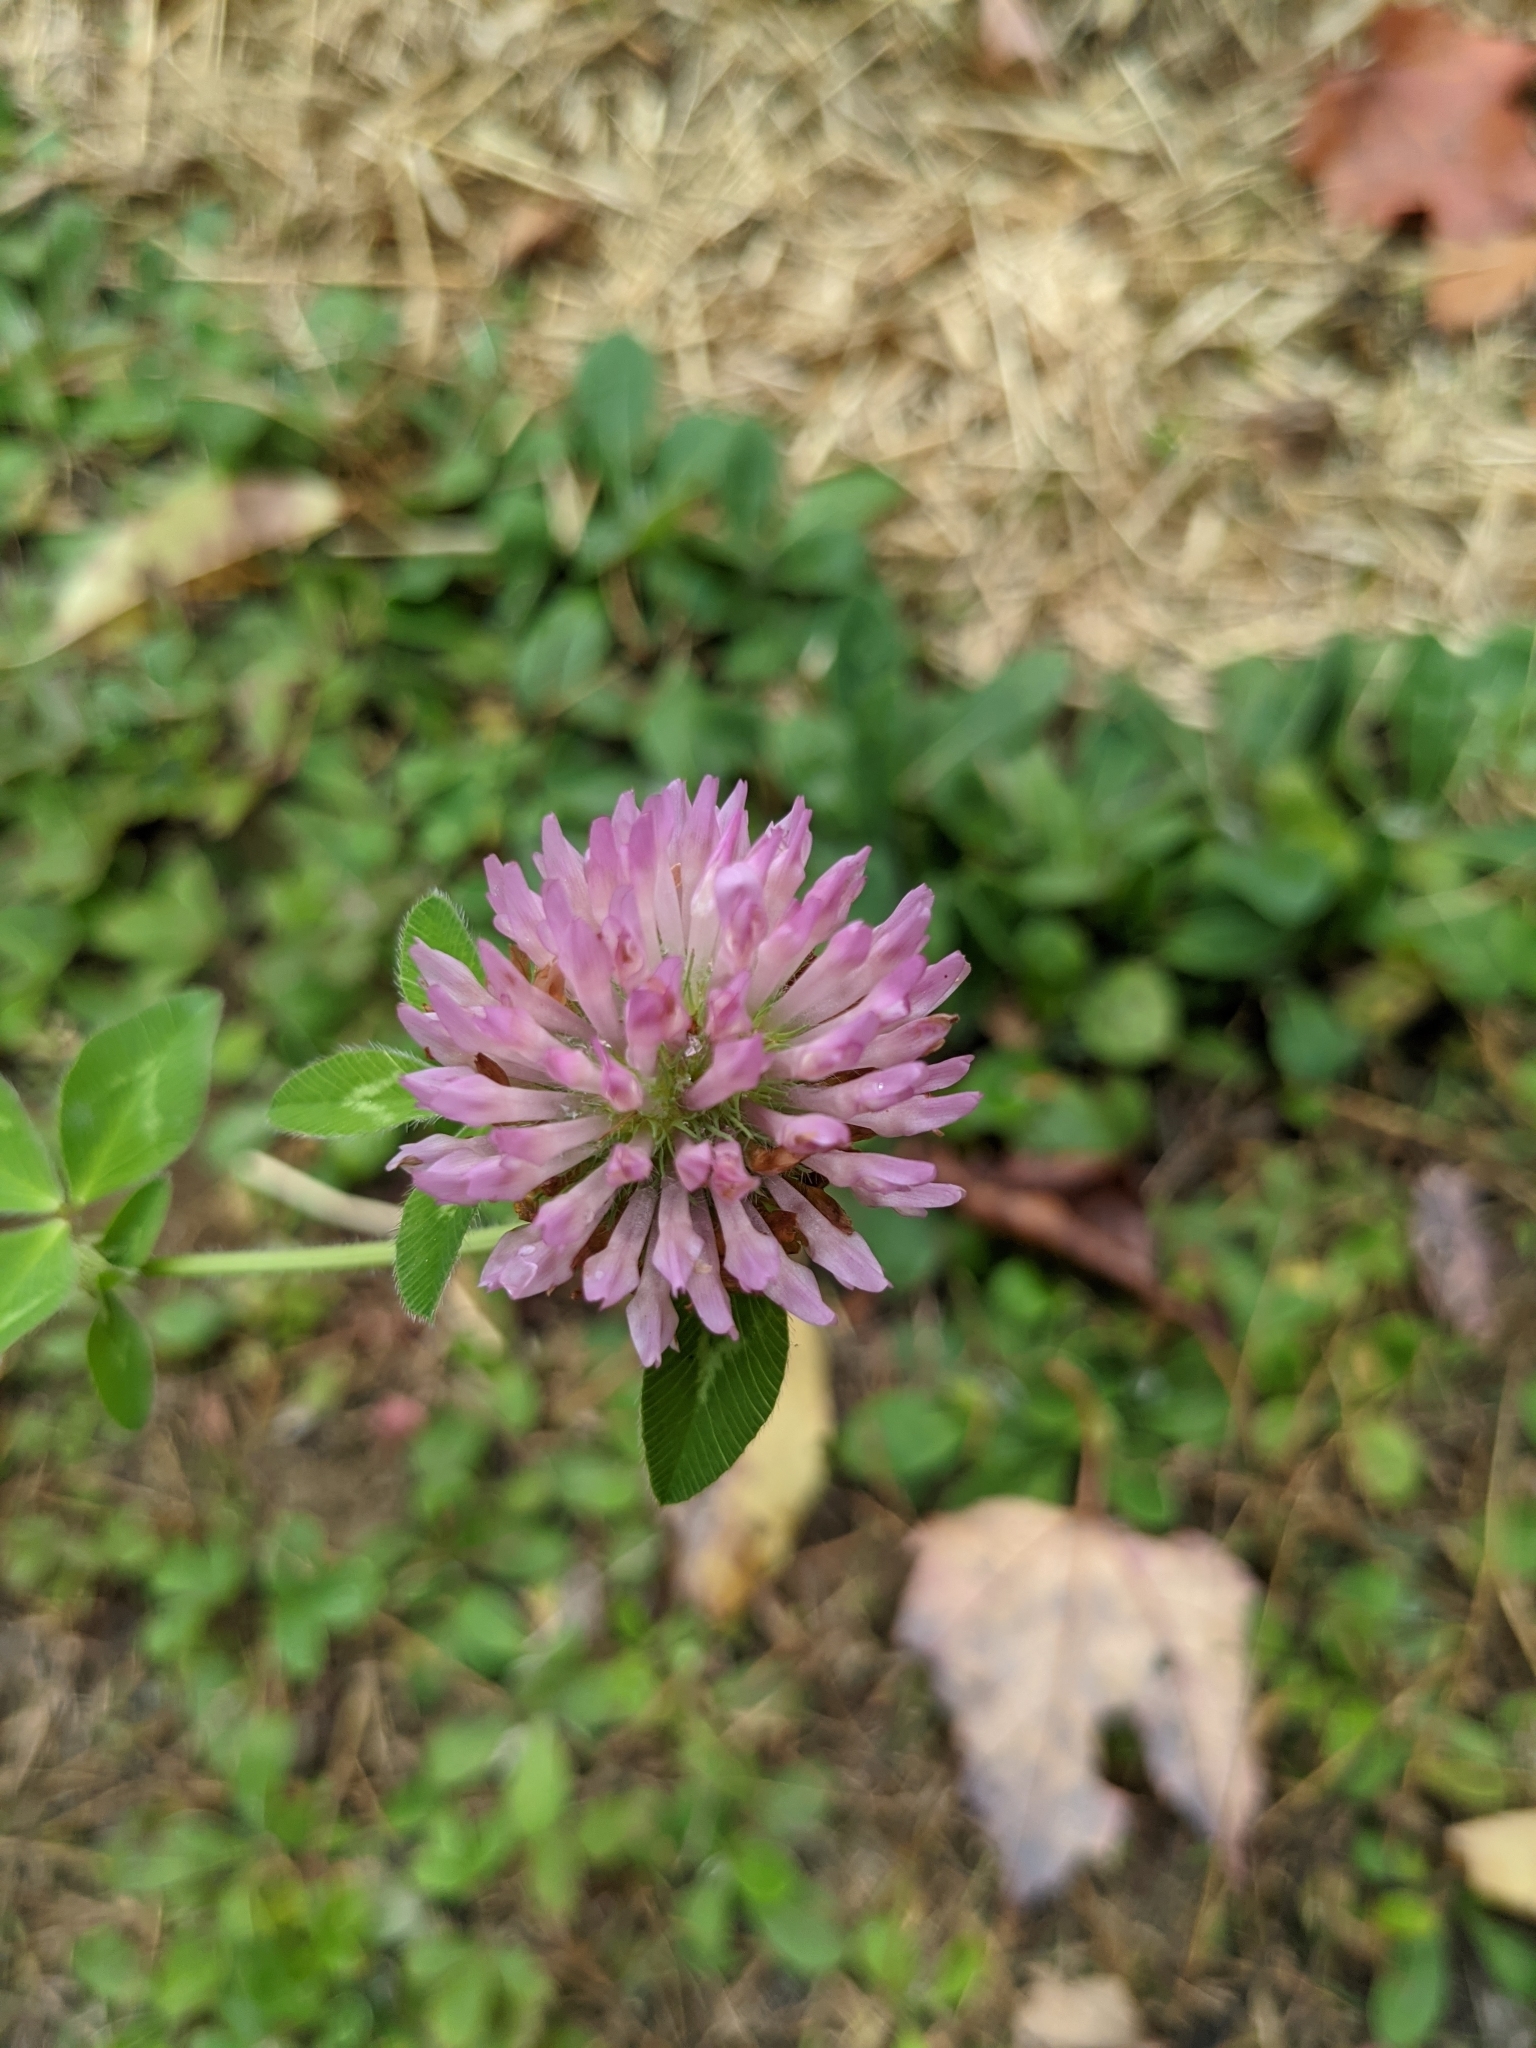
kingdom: Plantae
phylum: Tracheophyta
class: Magnoliopsida
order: Fabales
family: Fabaceae
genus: Trifolium
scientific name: Trifolium pratense
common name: Red clover
